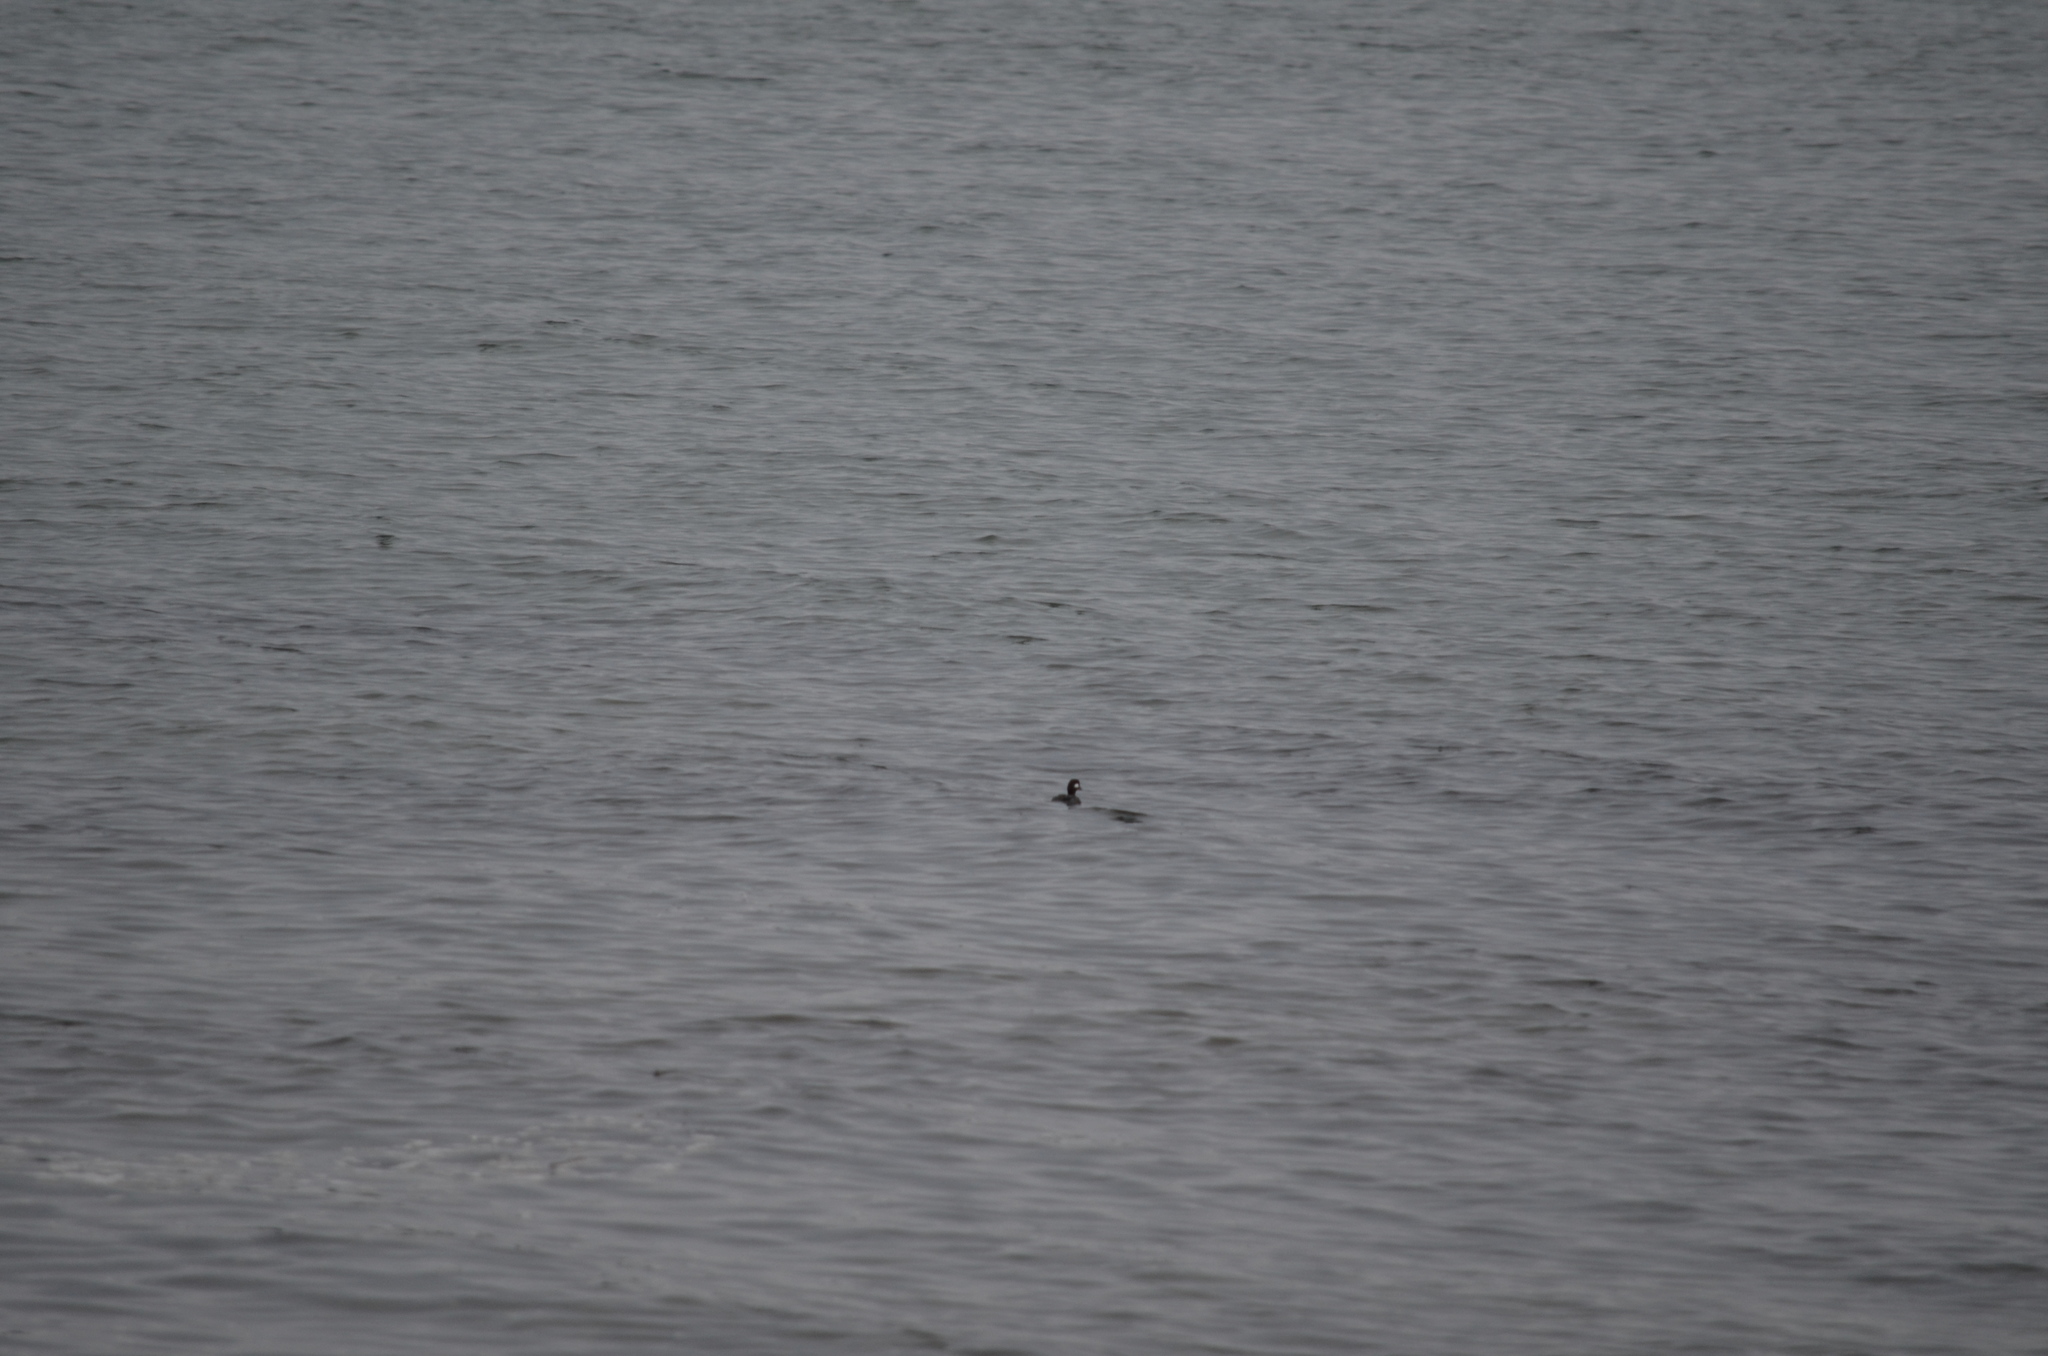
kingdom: Animalia
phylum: Chordata
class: Aves
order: Anseriformes
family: Anatidae
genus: Bucephala
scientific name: Bucephala albeola
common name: Bufflehead
